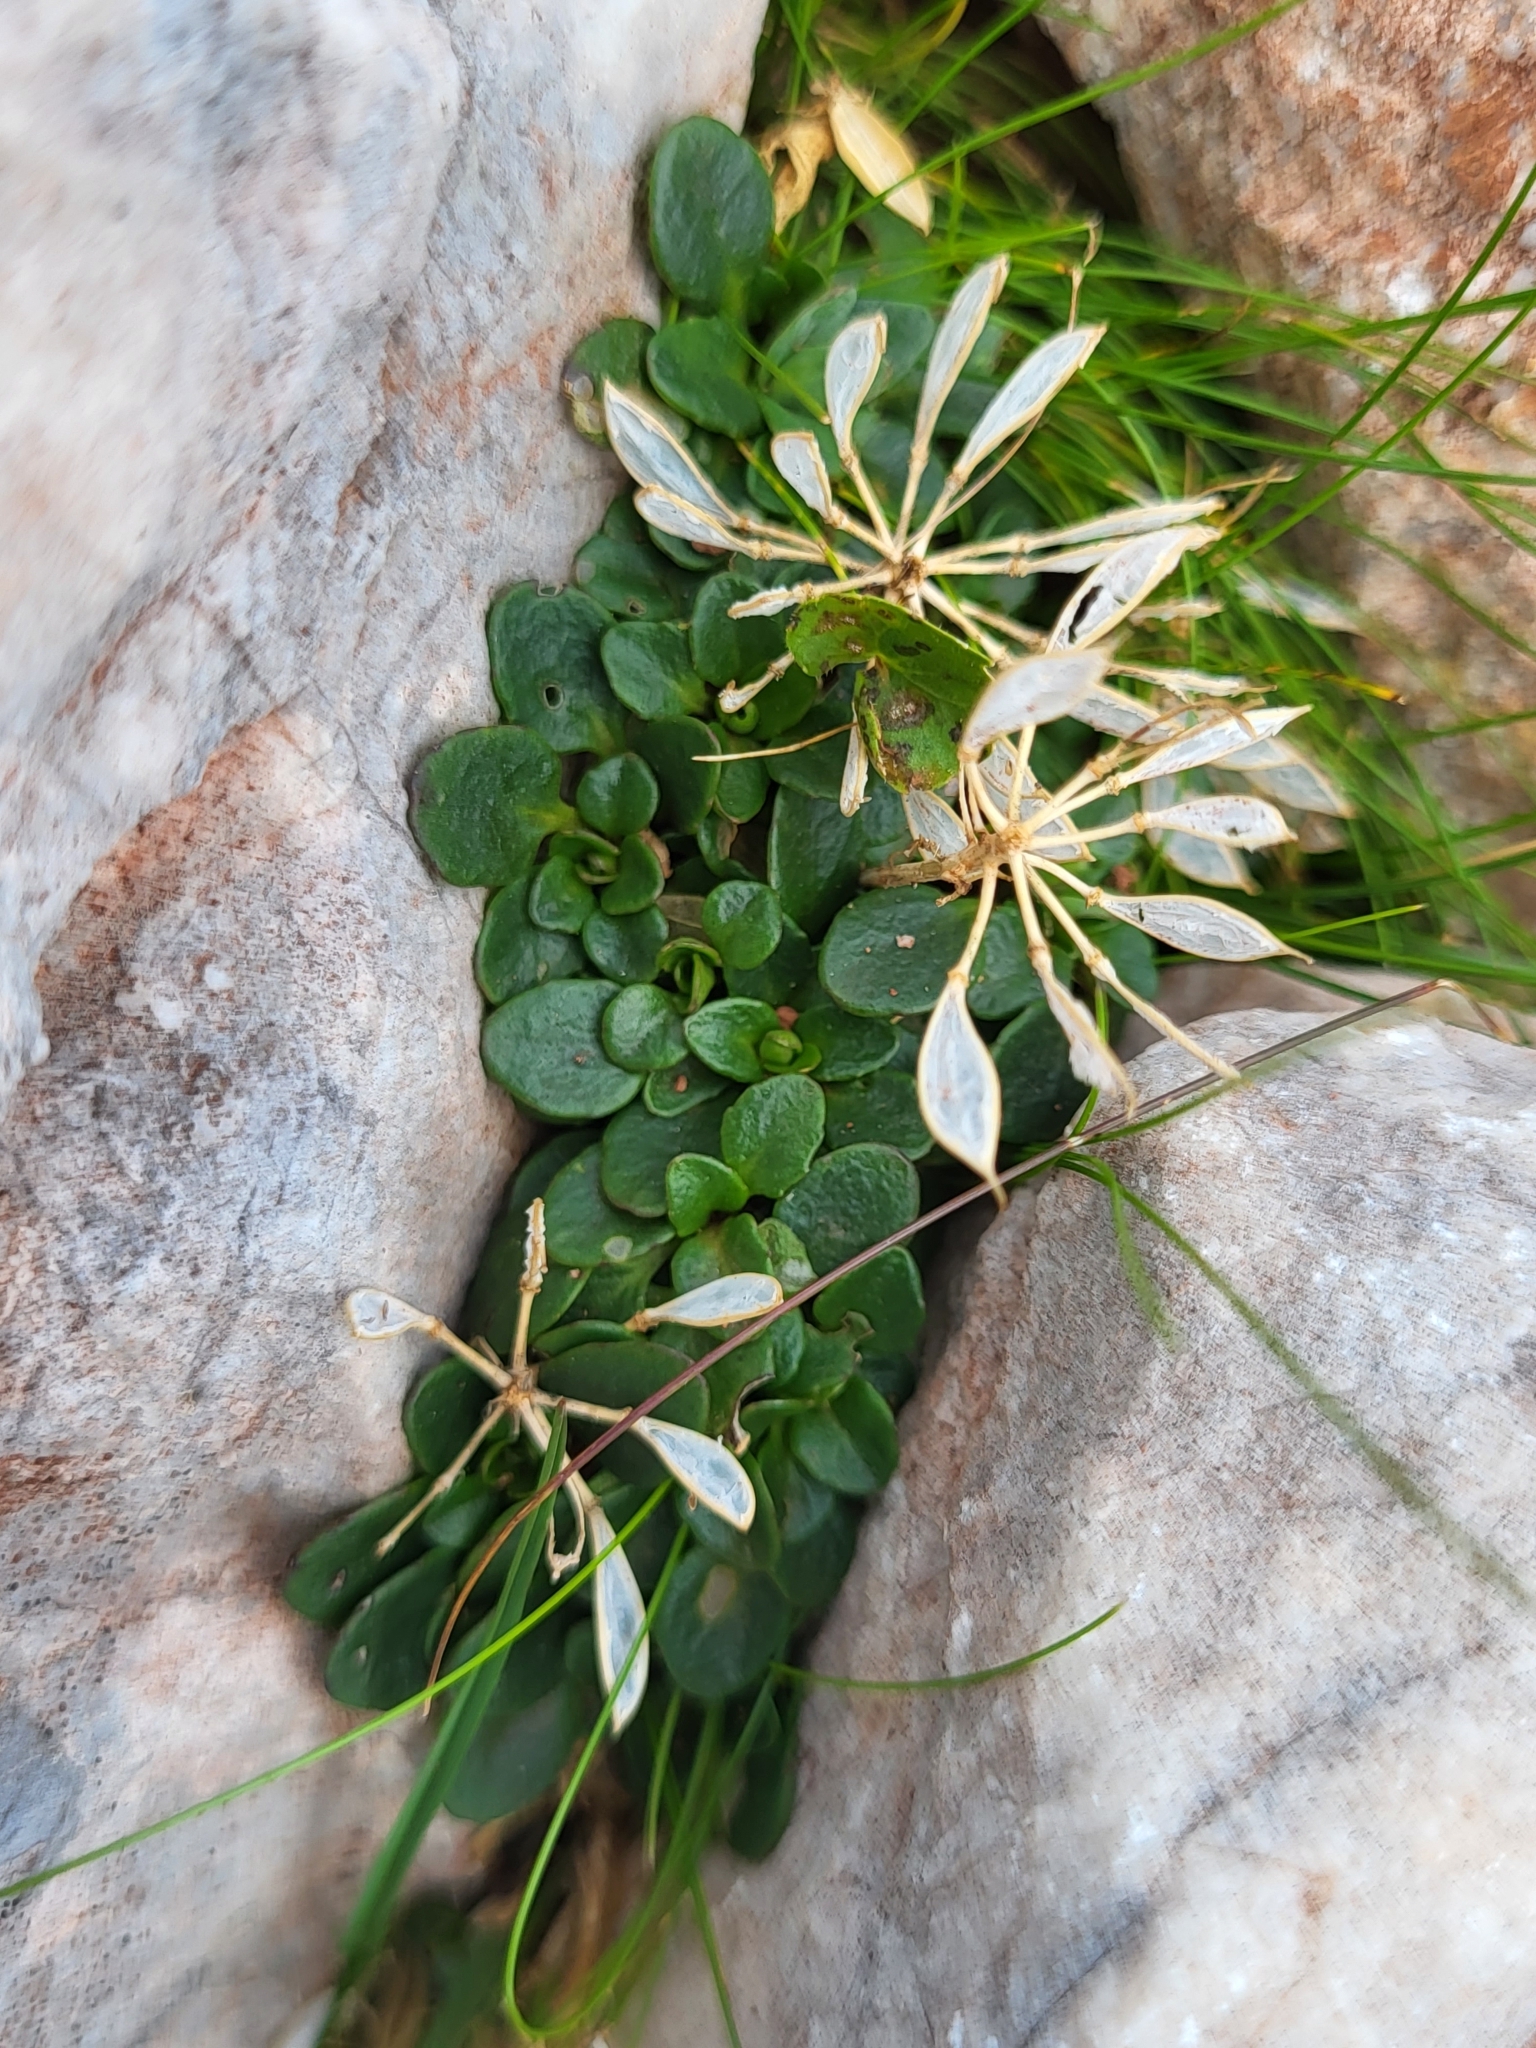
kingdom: Plantae
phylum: Tracheophyta
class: Magnoliopsida
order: Brassicales
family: Brassicaceae
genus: Noccaea
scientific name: Noccaea rotundifolia
